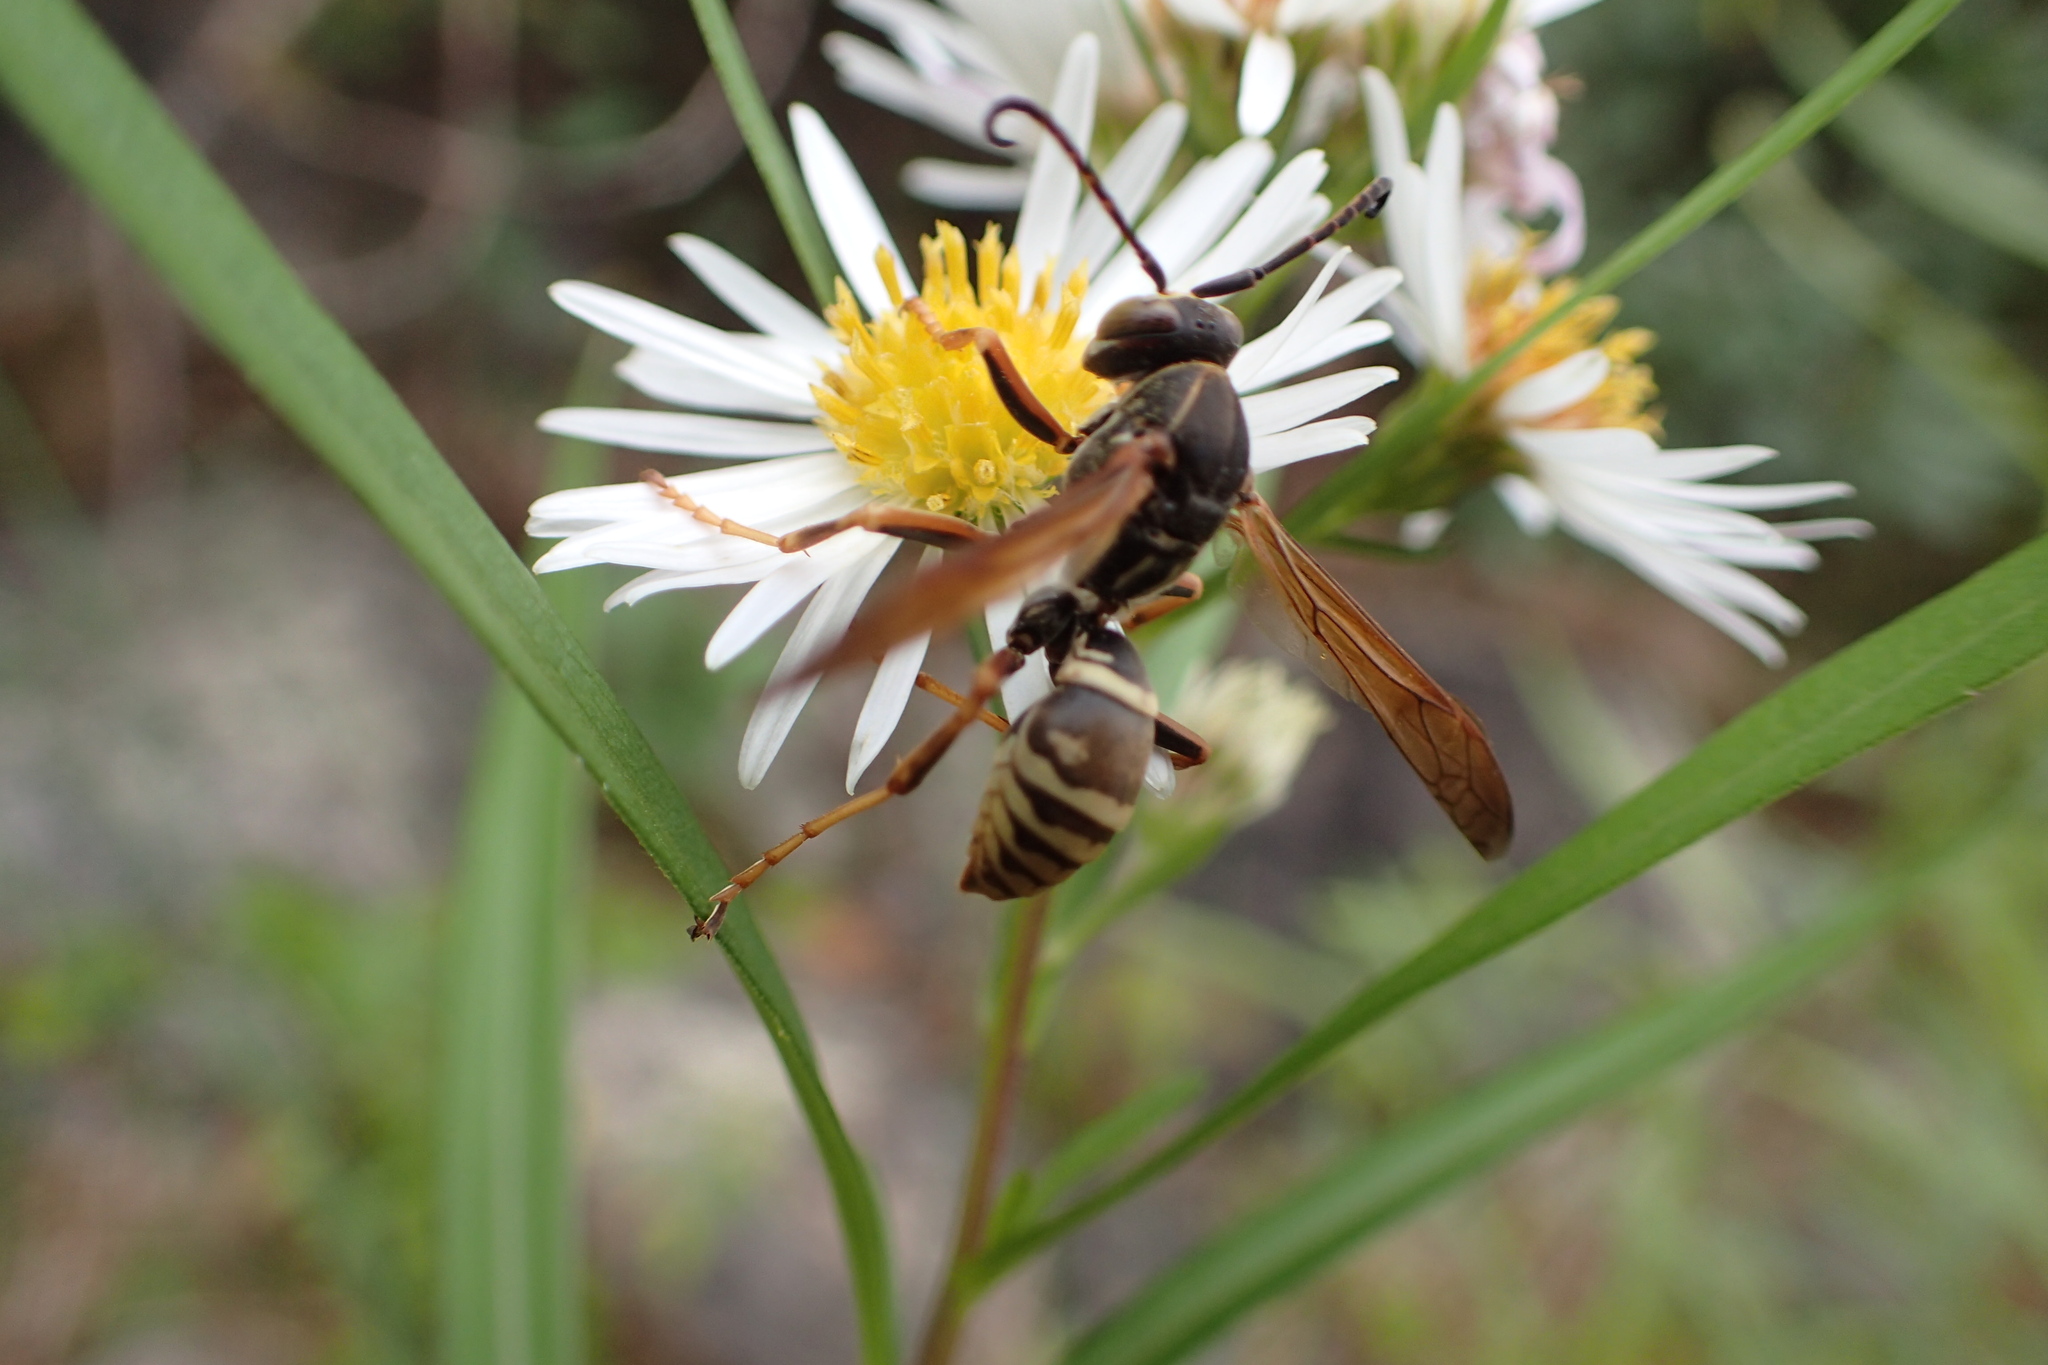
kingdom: Animalia
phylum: Arthropoda
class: Insecta
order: Hymenoptera
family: Eumenidae
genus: Polistes
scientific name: Polistes fuscatus
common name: Dark paper wasp
